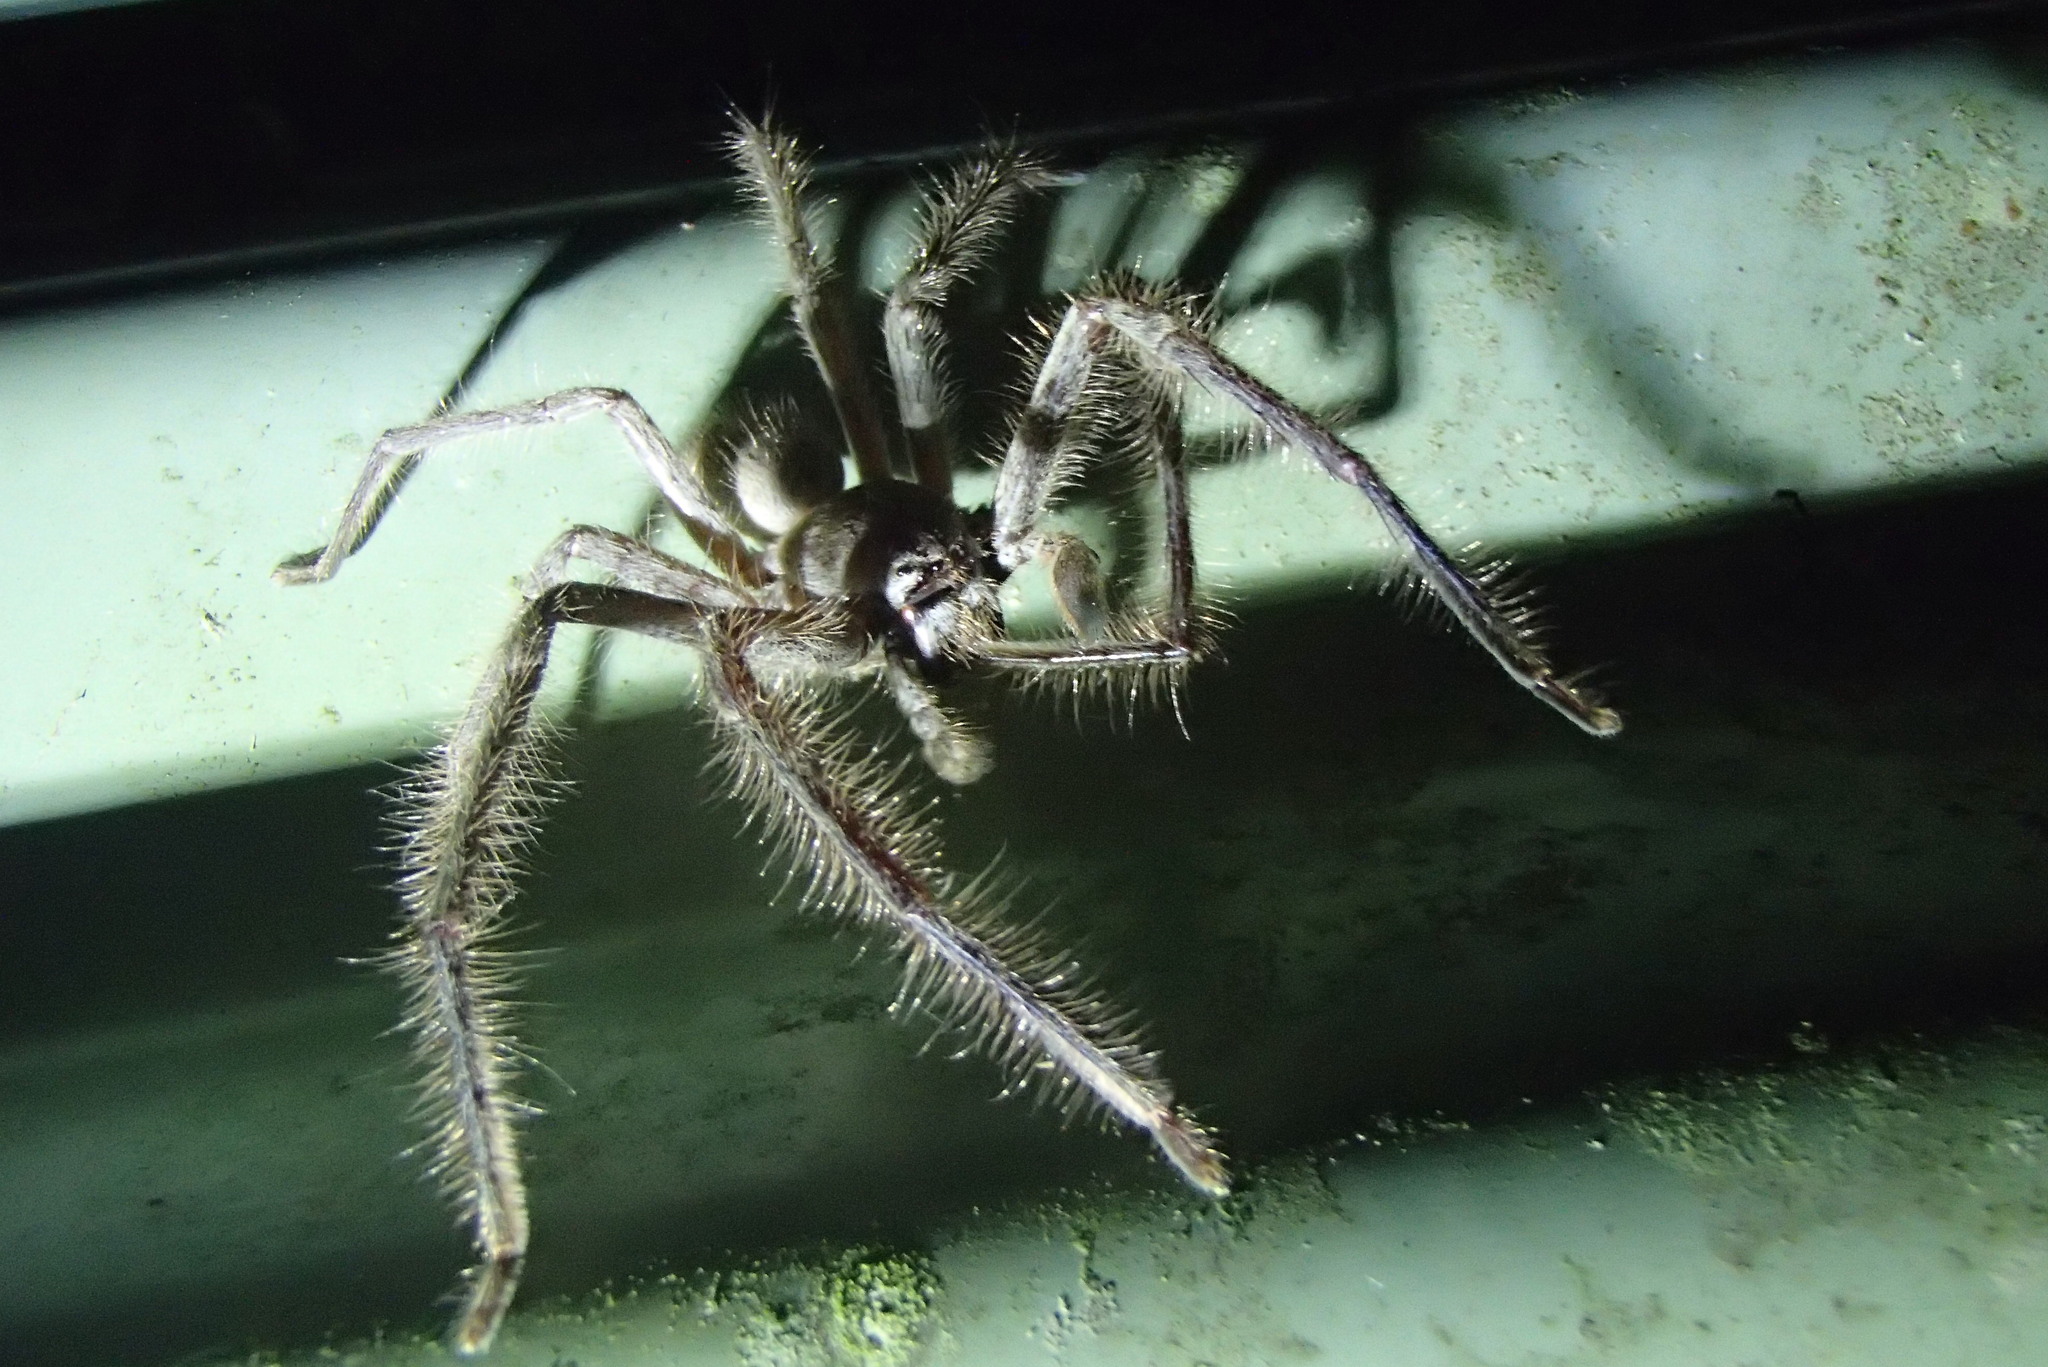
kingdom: Animalia
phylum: Arthropoda
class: Arachnida
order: Araneae
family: Sparassidae
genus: Isopeda
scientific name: Isopeda villosa
